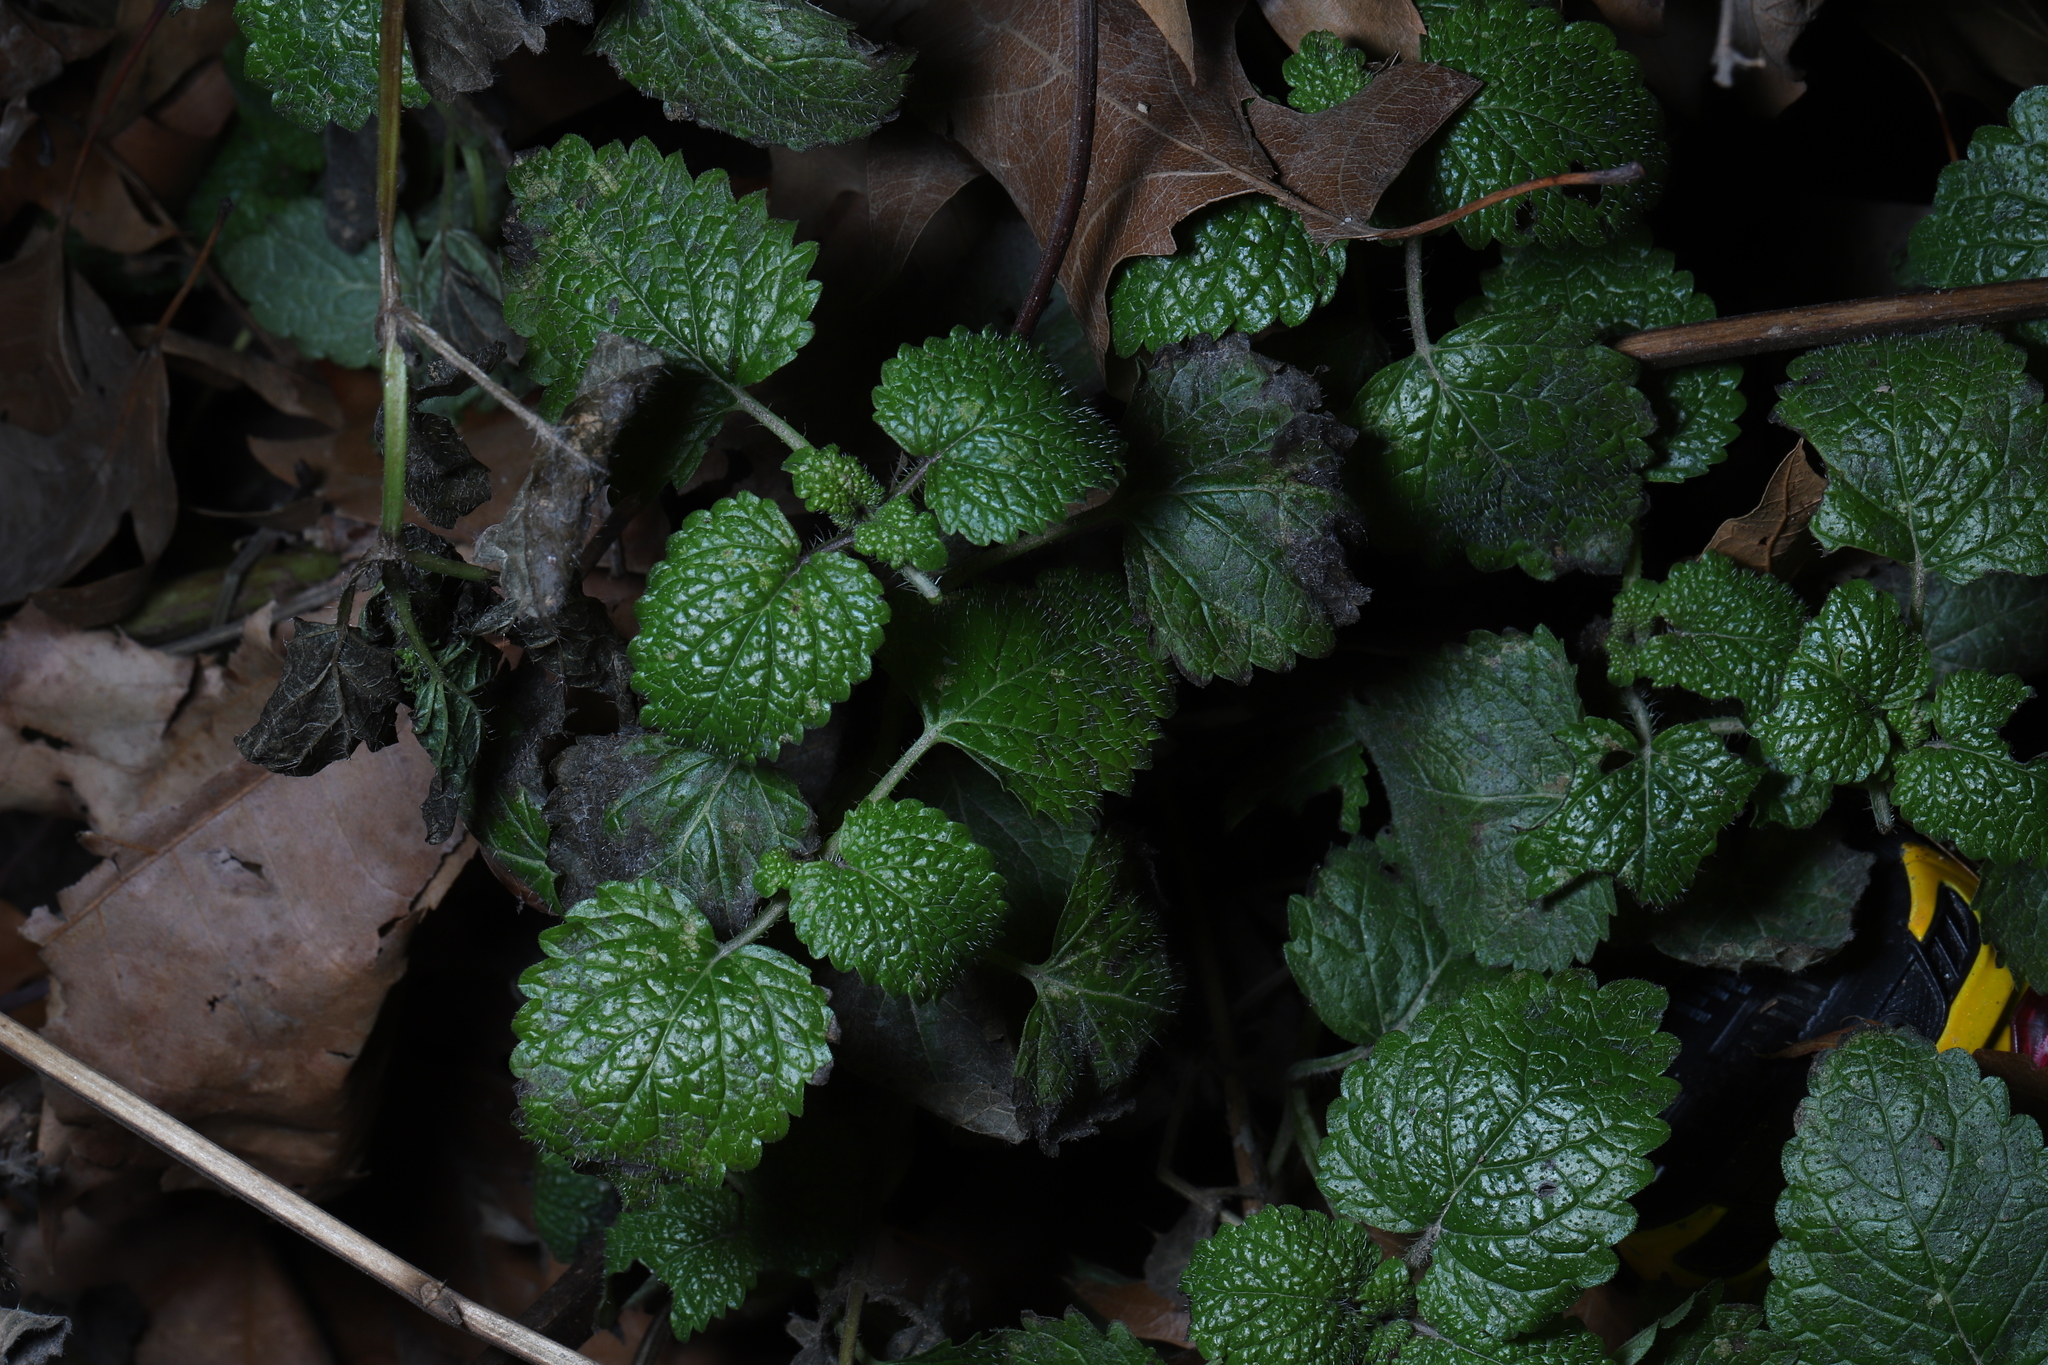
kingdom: Plantae
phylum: Tracheophyta
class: Magnoliopsida
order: Lamiales
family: Lamiaceae
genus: Melissa
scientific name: Melissa officinalis
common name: Balm
